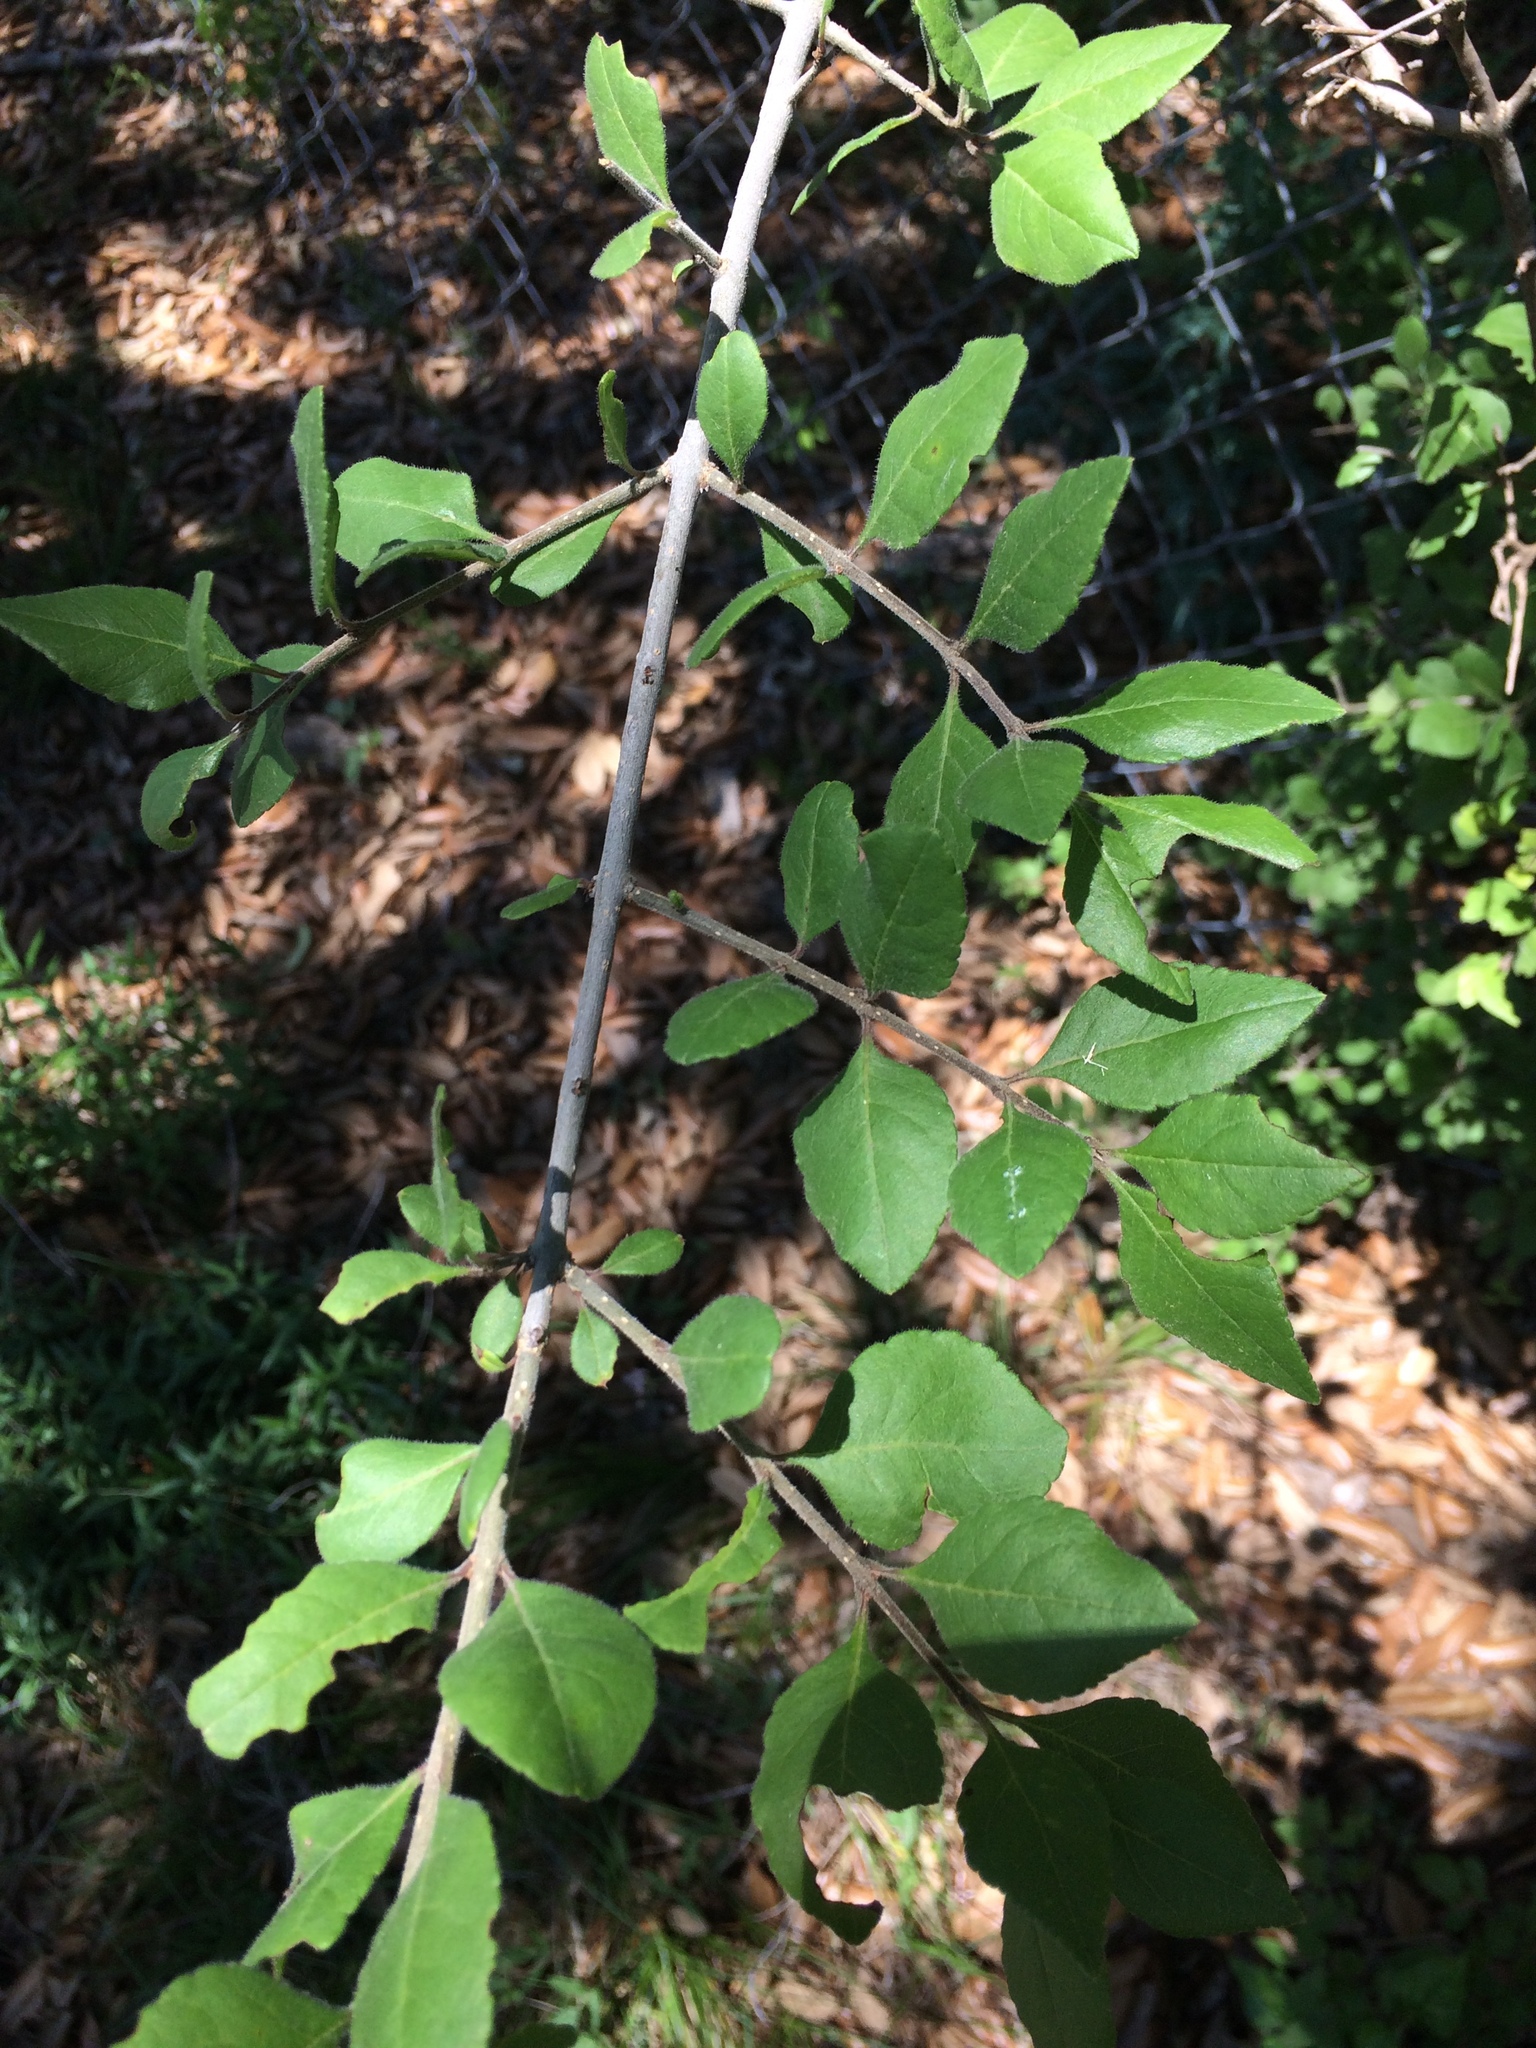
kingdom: Plantae
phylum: Tracheophyta
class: Magnoliopsida
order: Lamiales
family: Oleaceae
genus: Forestiera
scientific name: Forestiera pubescens
